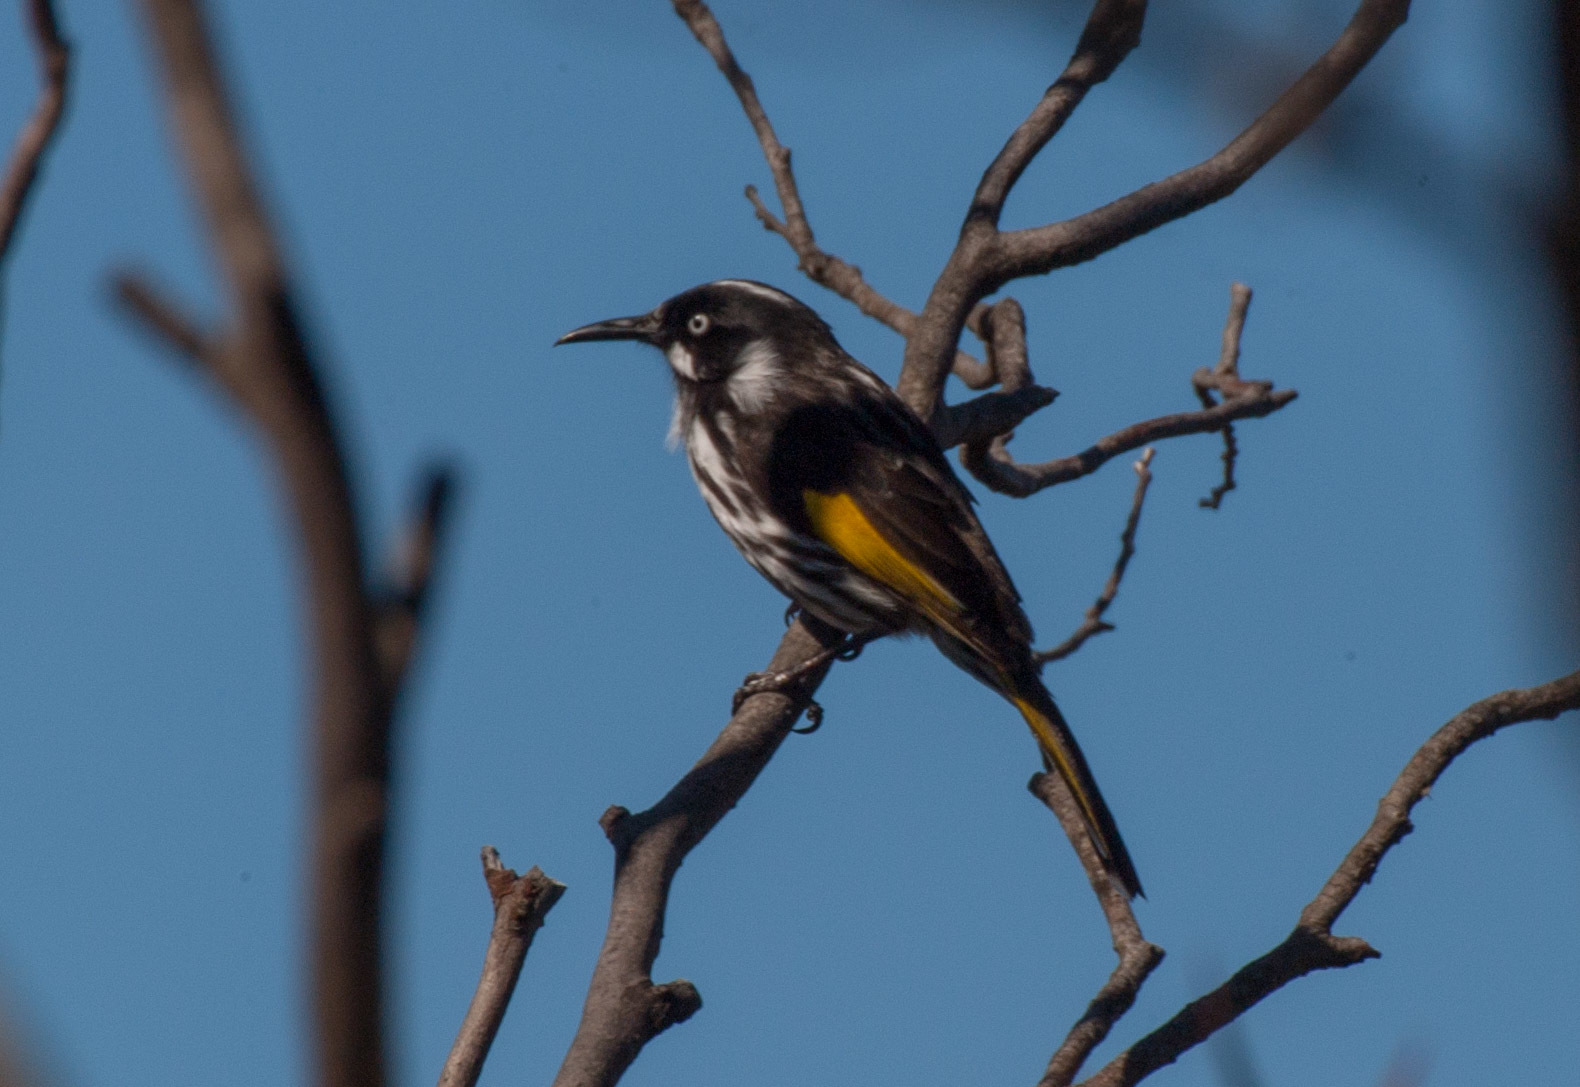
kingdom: Animalia
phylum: Chordata
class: Aves
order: Passeriformes
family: Meliphagidae
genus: Phylidonyris
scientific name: Phylidonyris novaehollandiae
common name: New holland honeyeater
